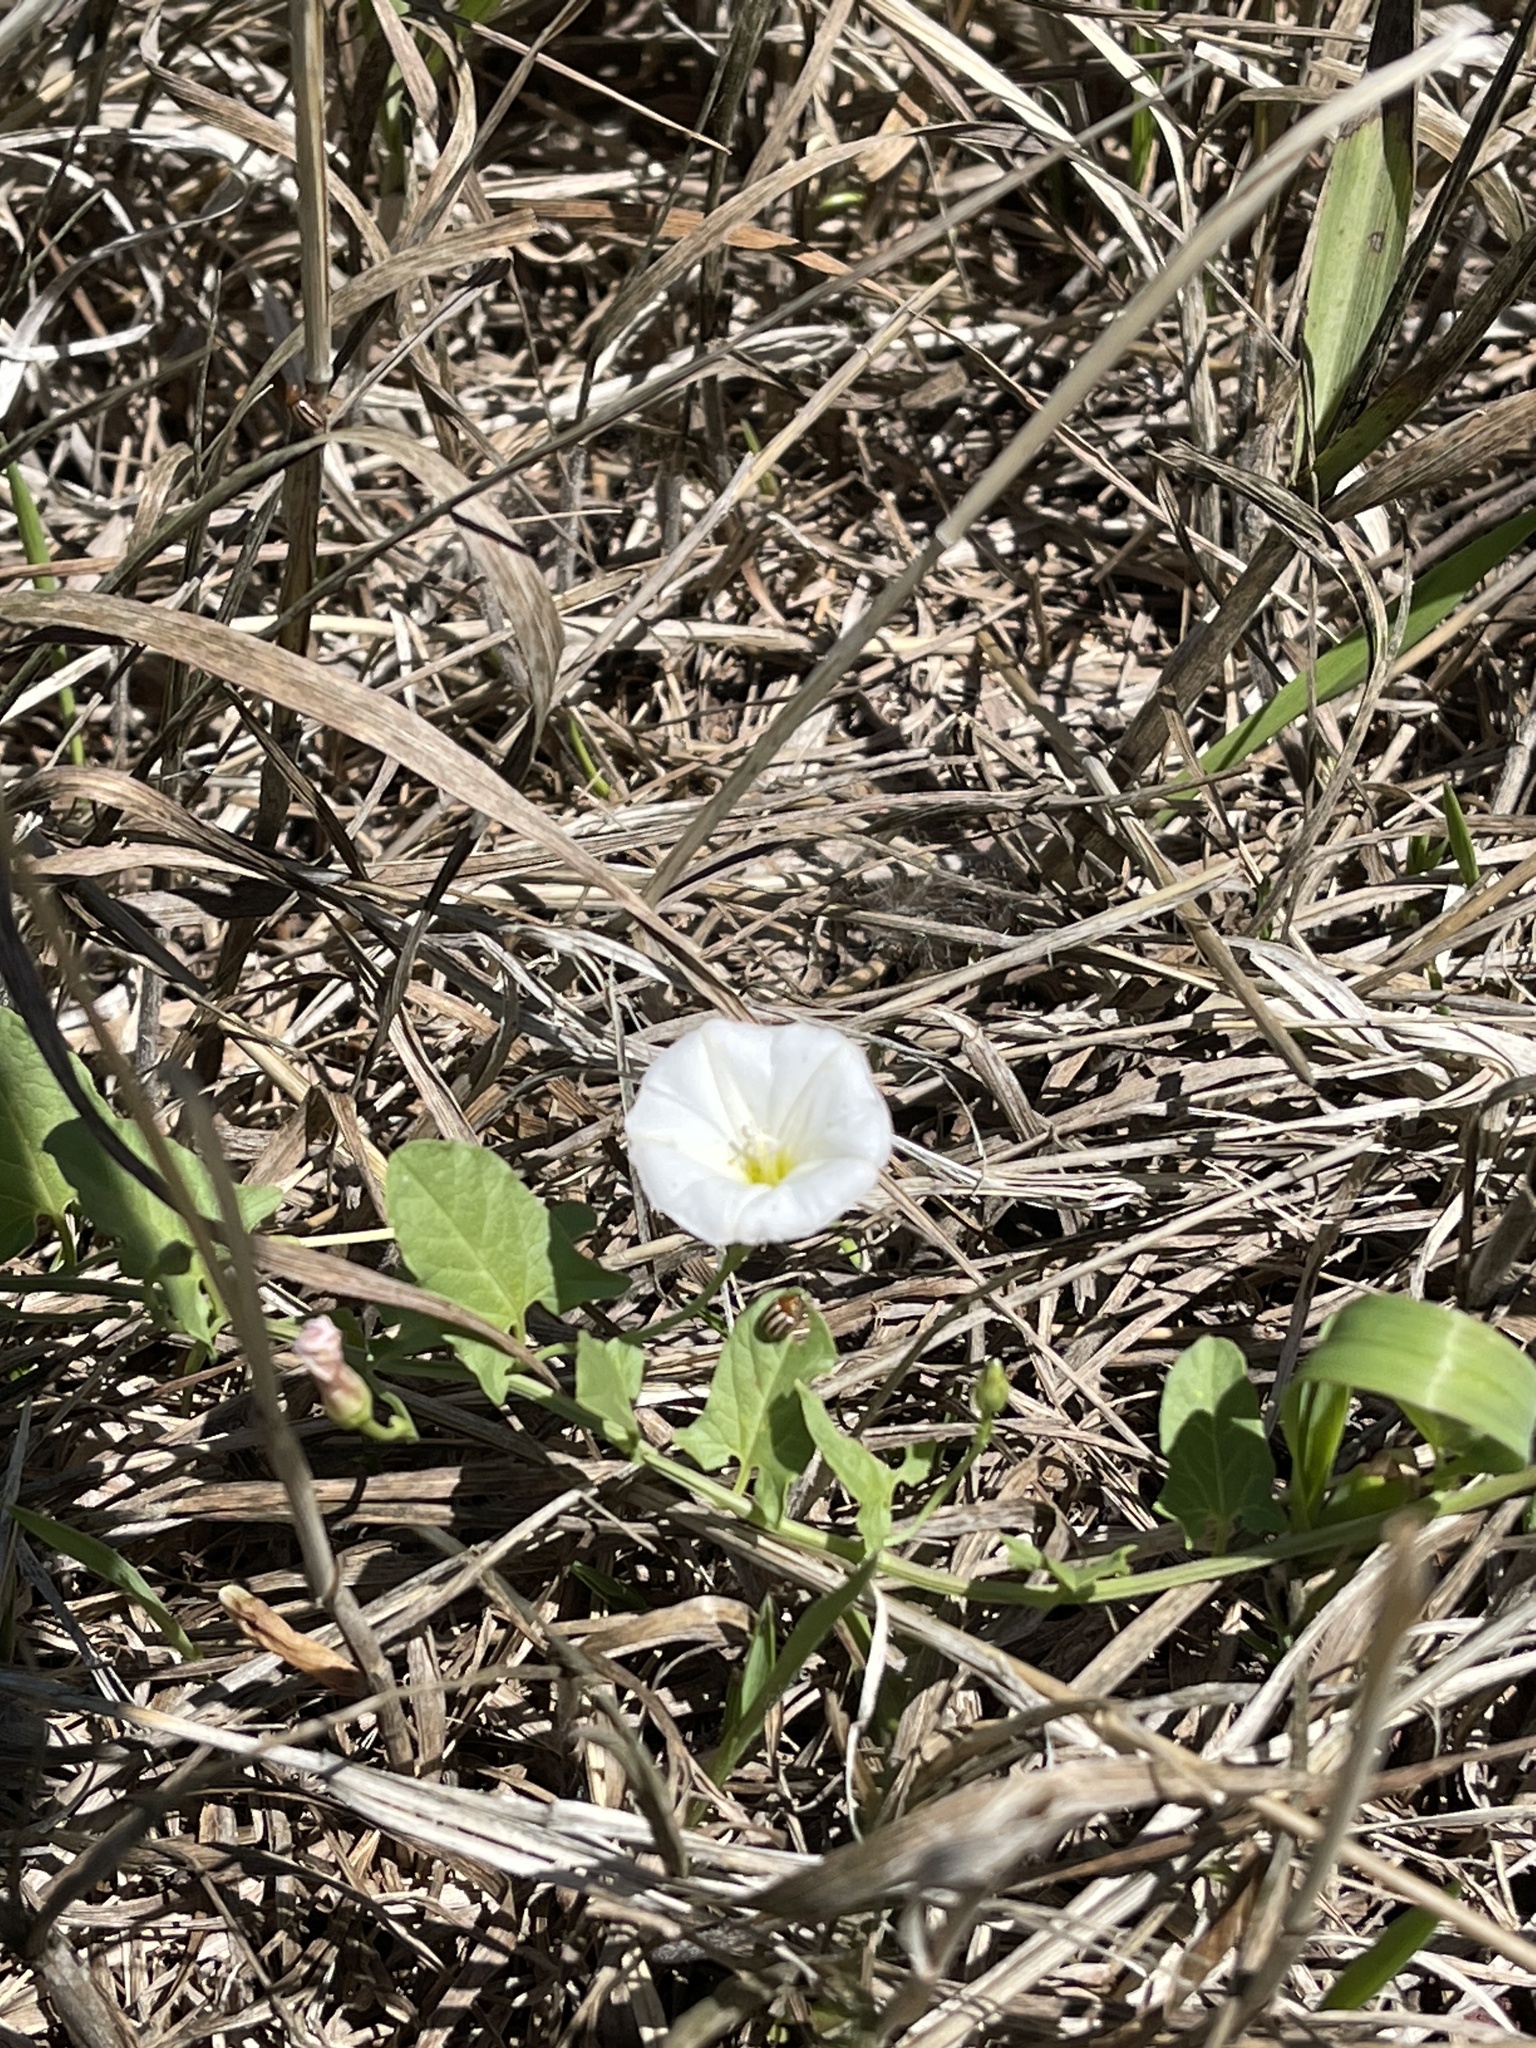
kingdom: Plantae
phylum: Tracheophyta
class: Magnoliopsida
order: Solanales
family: Convolvulaceae
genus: Convolvulus
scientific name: Convolvulus arvensis
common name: Field bindweed
